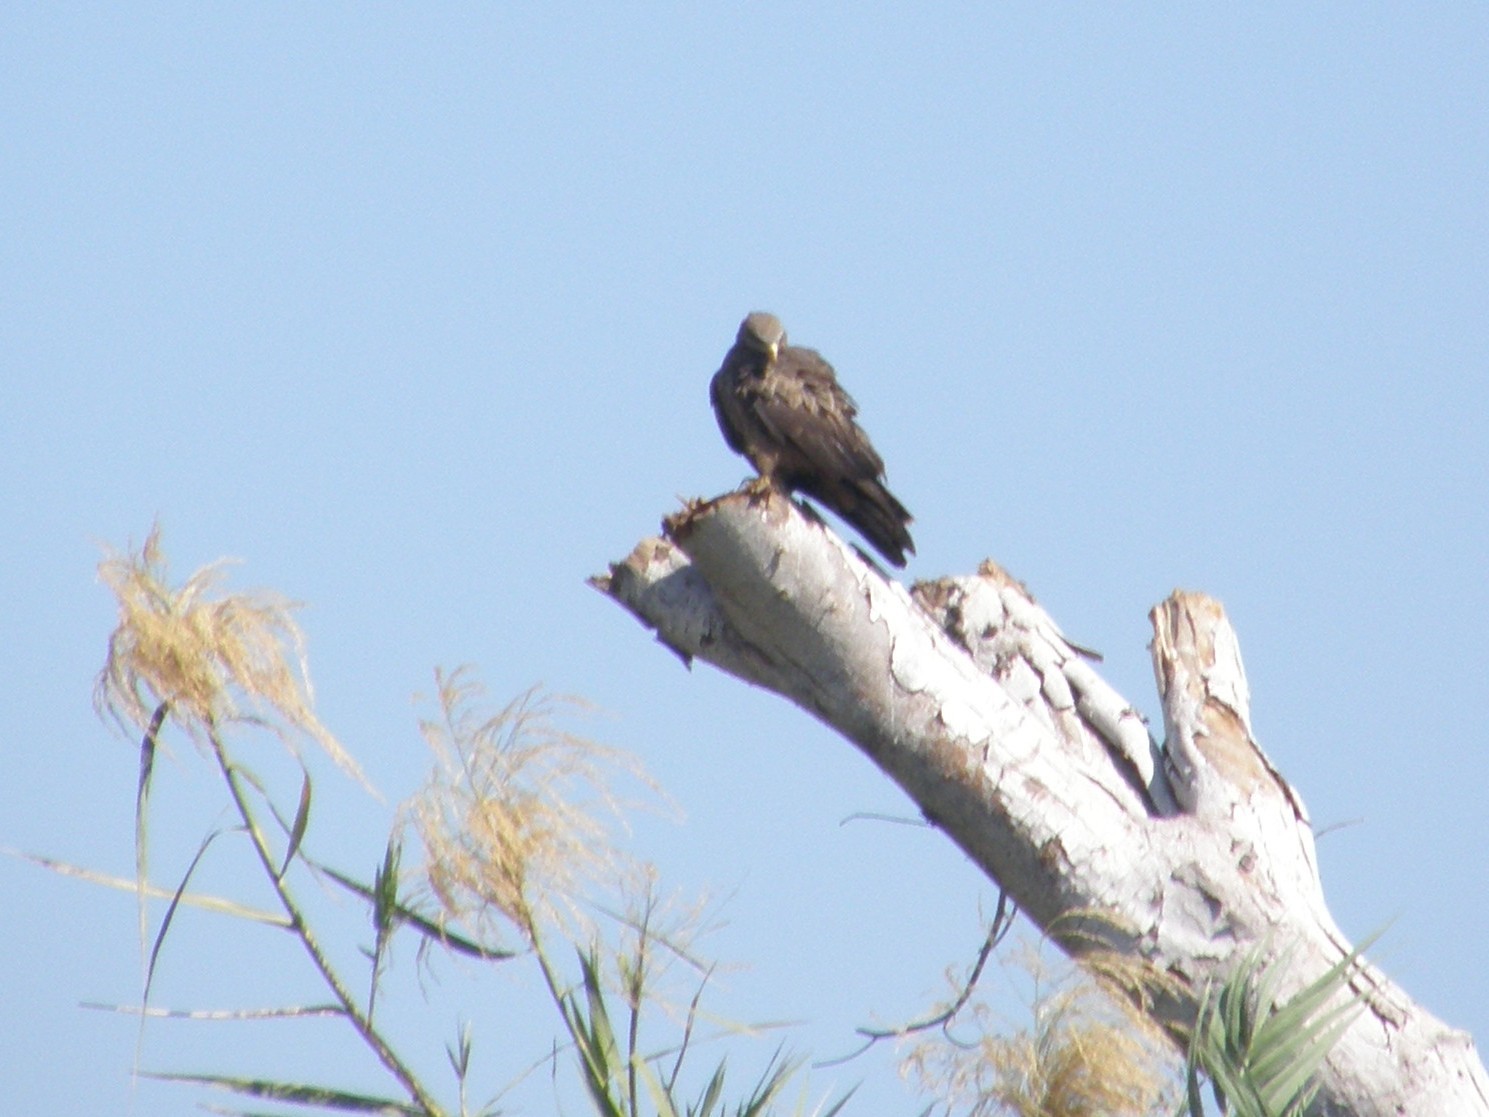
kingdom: Animalia
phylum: Chordata
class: Aves
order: Accipitriformes
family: Accipitridae
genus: Milvus
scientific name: Milvus migrans
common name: Black kite
